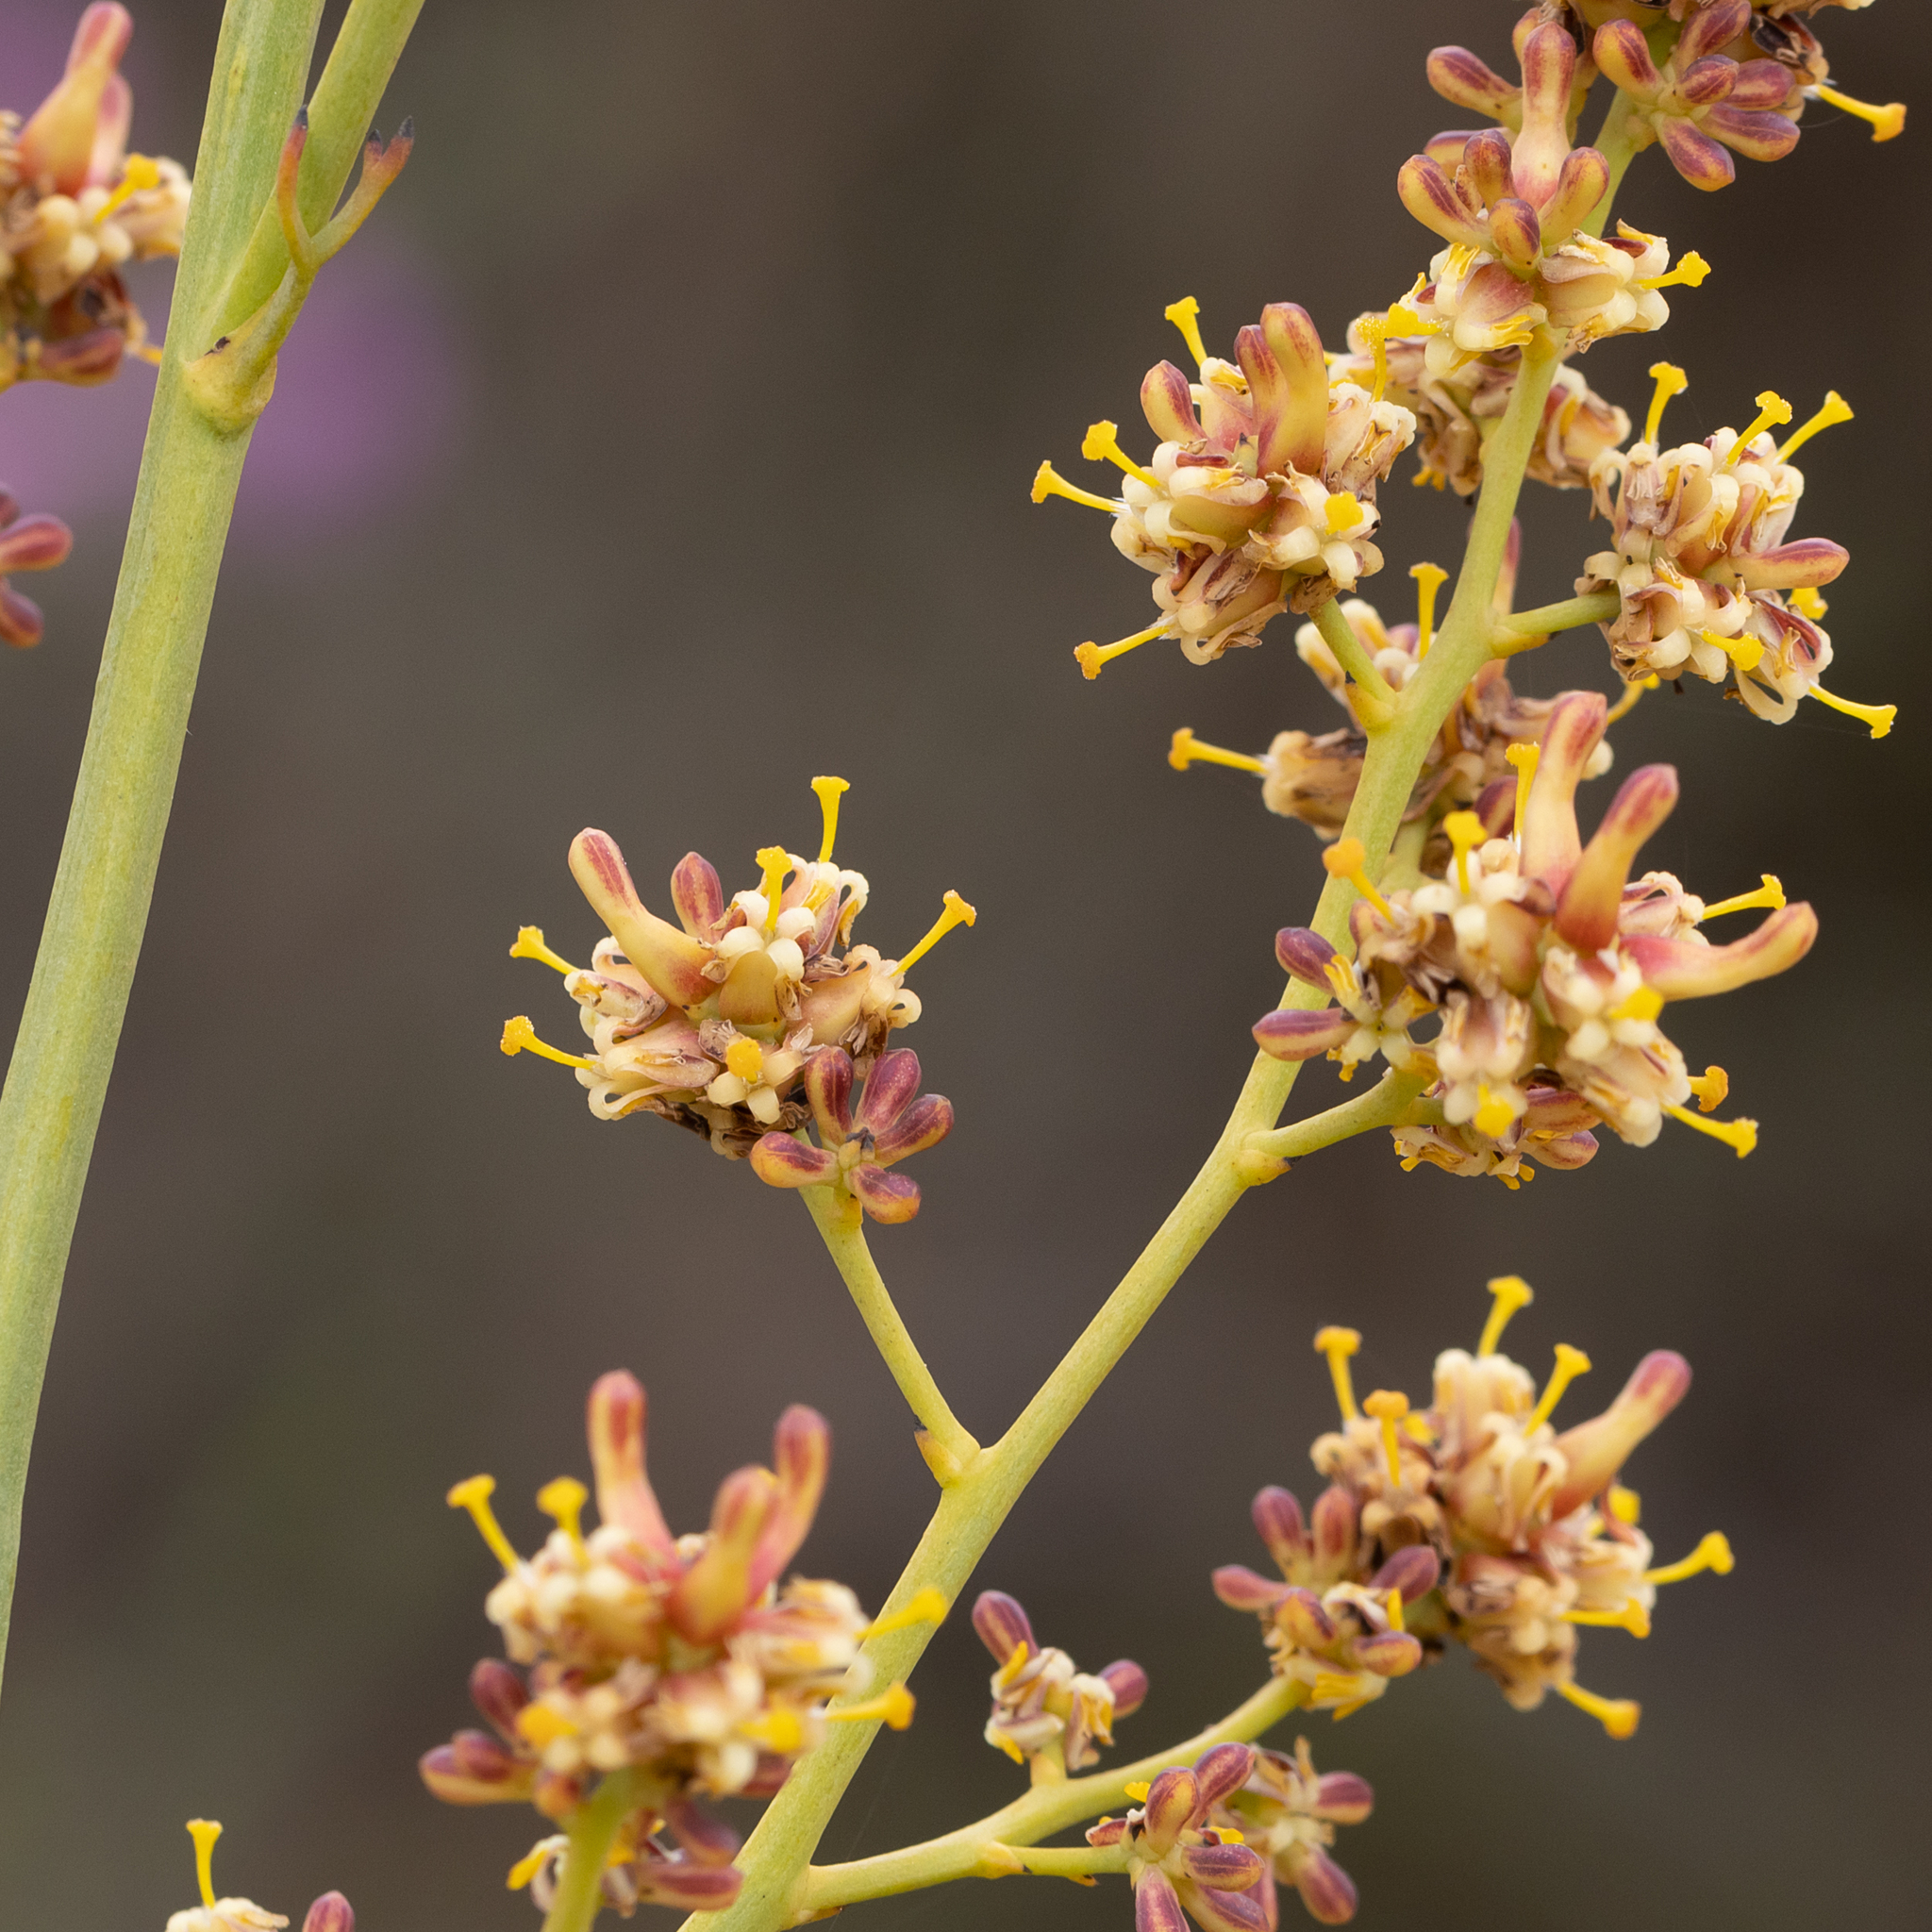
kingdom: Plantae
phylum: Tracheophyta
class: Magnoliopsida
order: Proteales
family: Proteaceae
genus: Stirlingia
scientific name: Stirlingia latifolia
